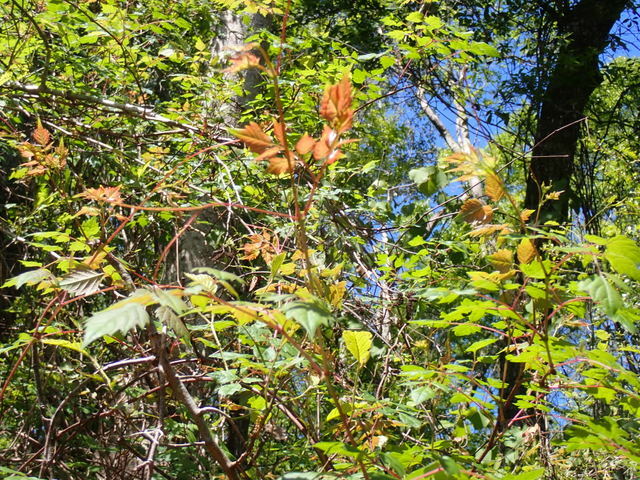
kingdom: Plantae
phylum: Tracheophyta
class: Magnoliopsida
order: Vitales
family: Vitaceae
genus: Nekemias
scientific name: Nekemias arborea
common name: Peppervine
